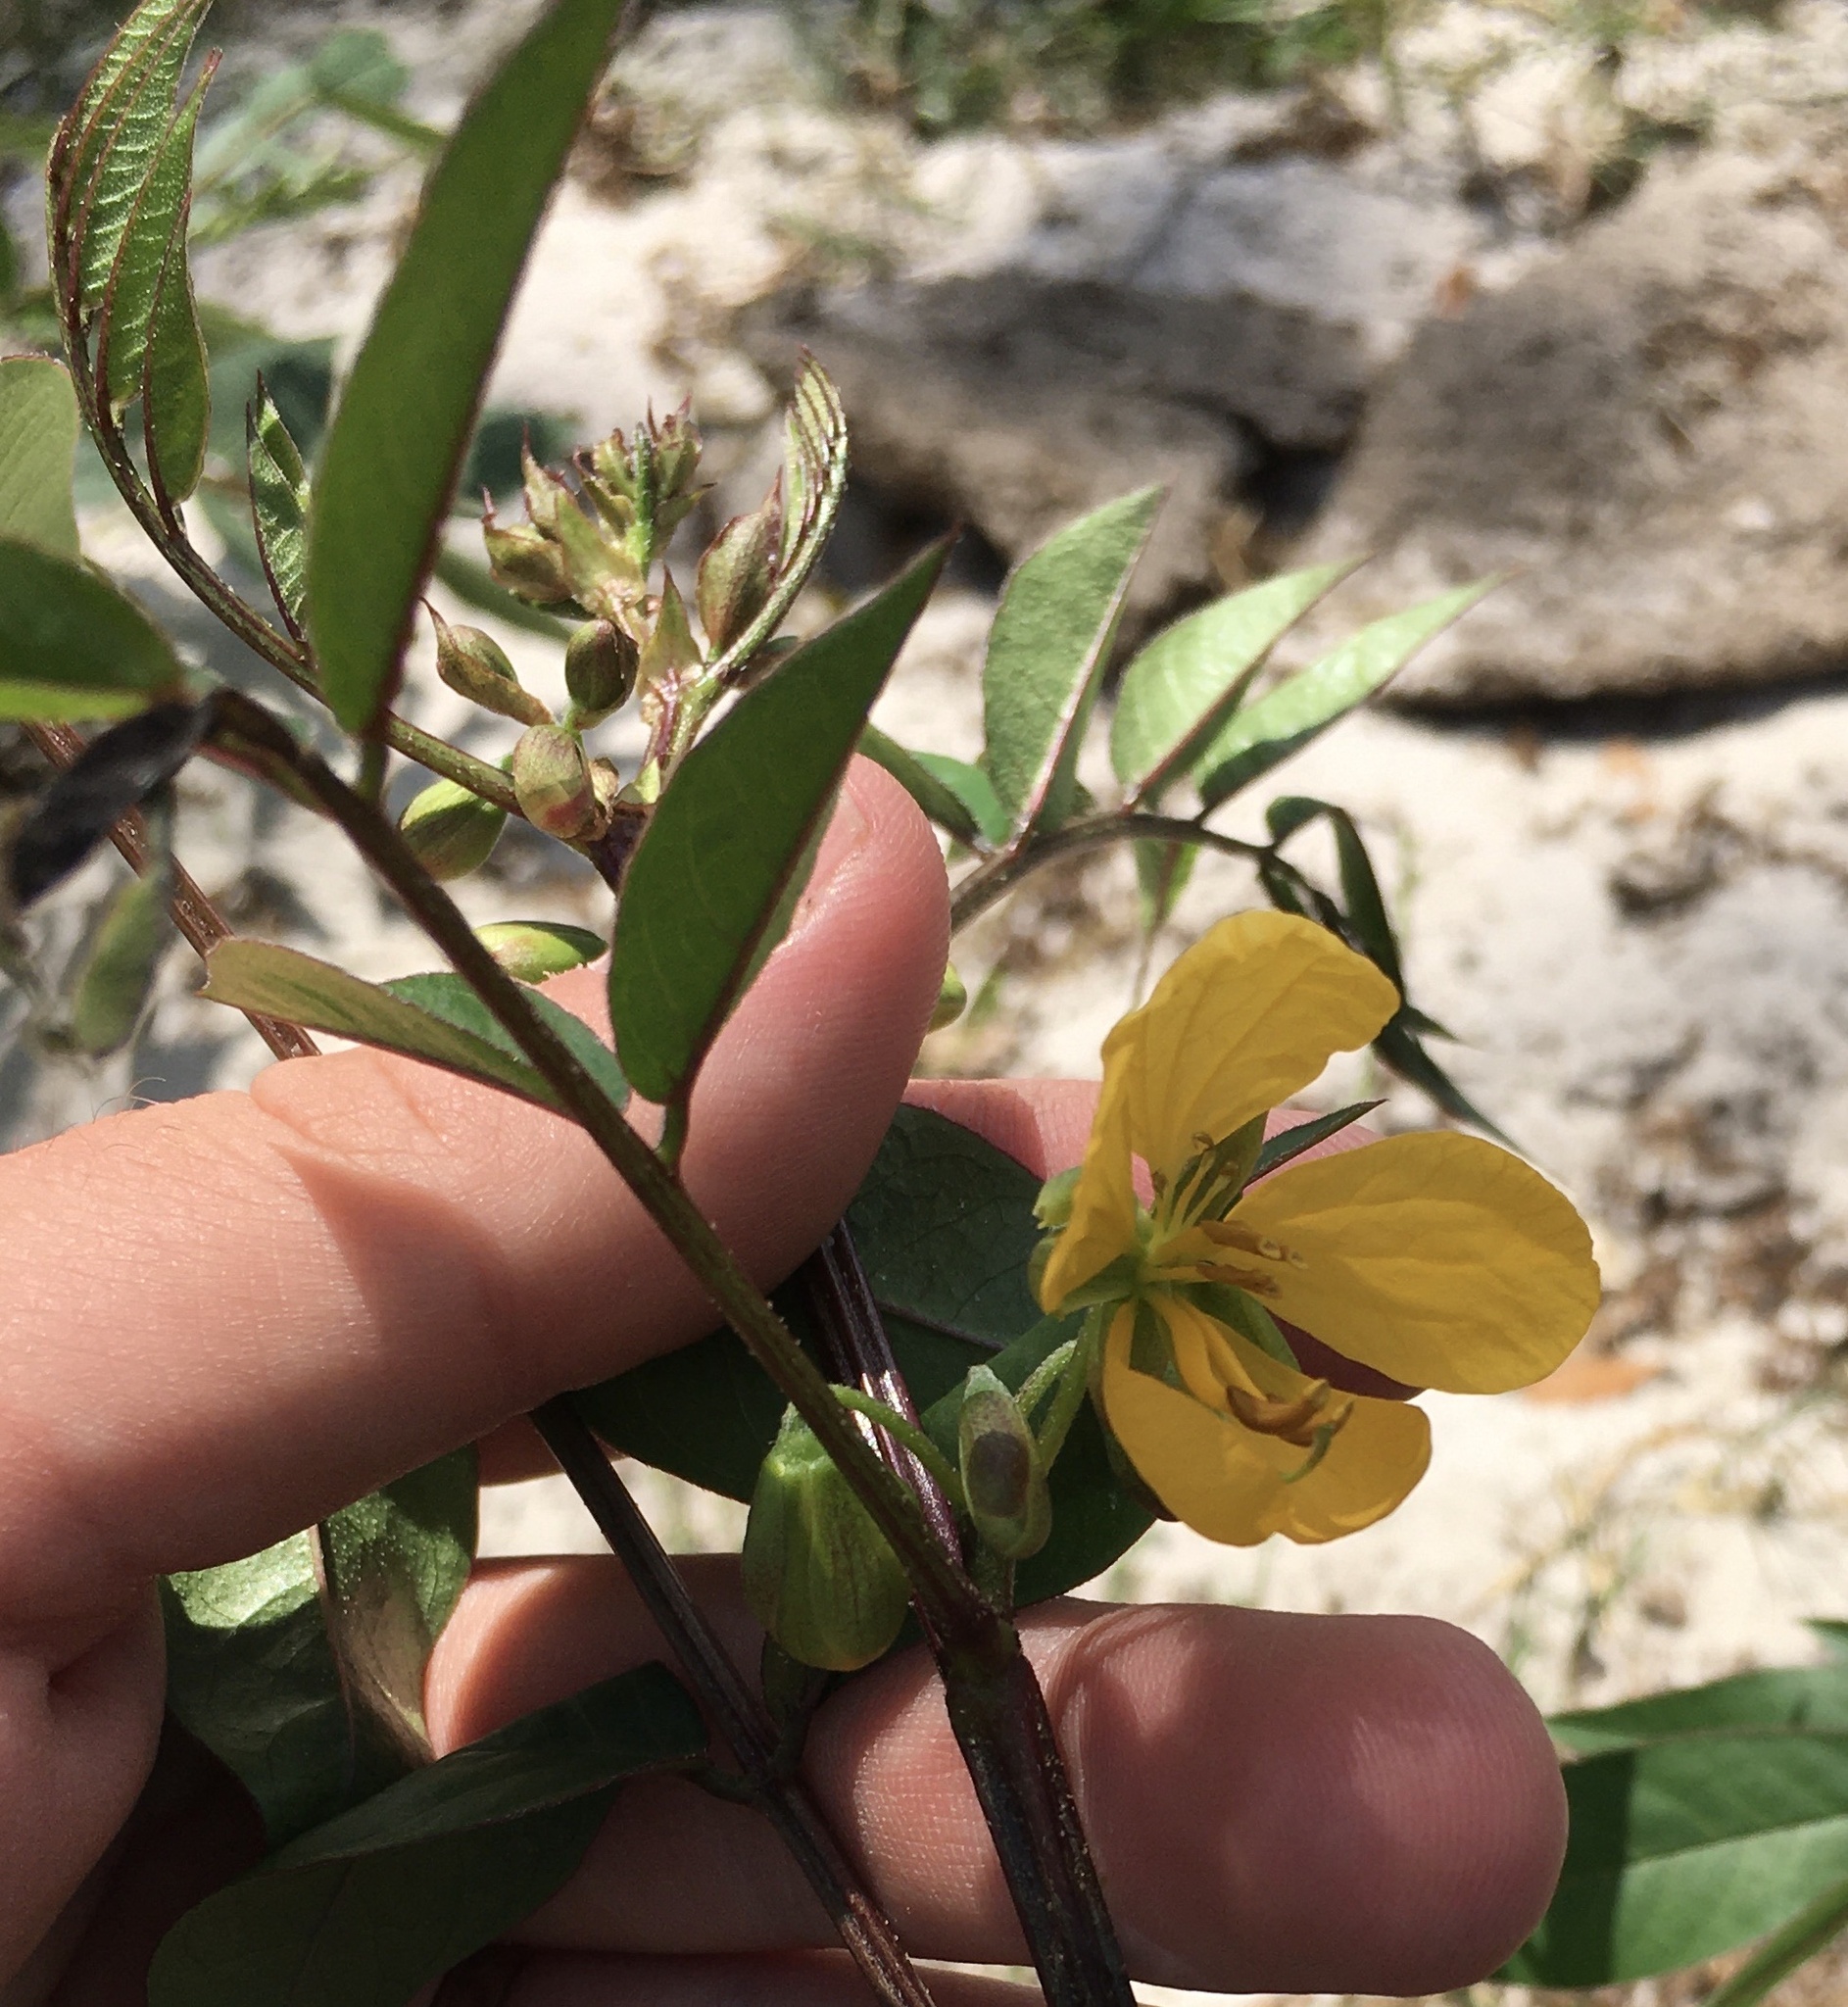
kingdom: Plantae
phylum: Tracheophyta
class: Magnoliopsida
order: Fabales
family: Fabaceae
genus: Senna
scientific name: Senna occidentalis
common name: Septicweed
